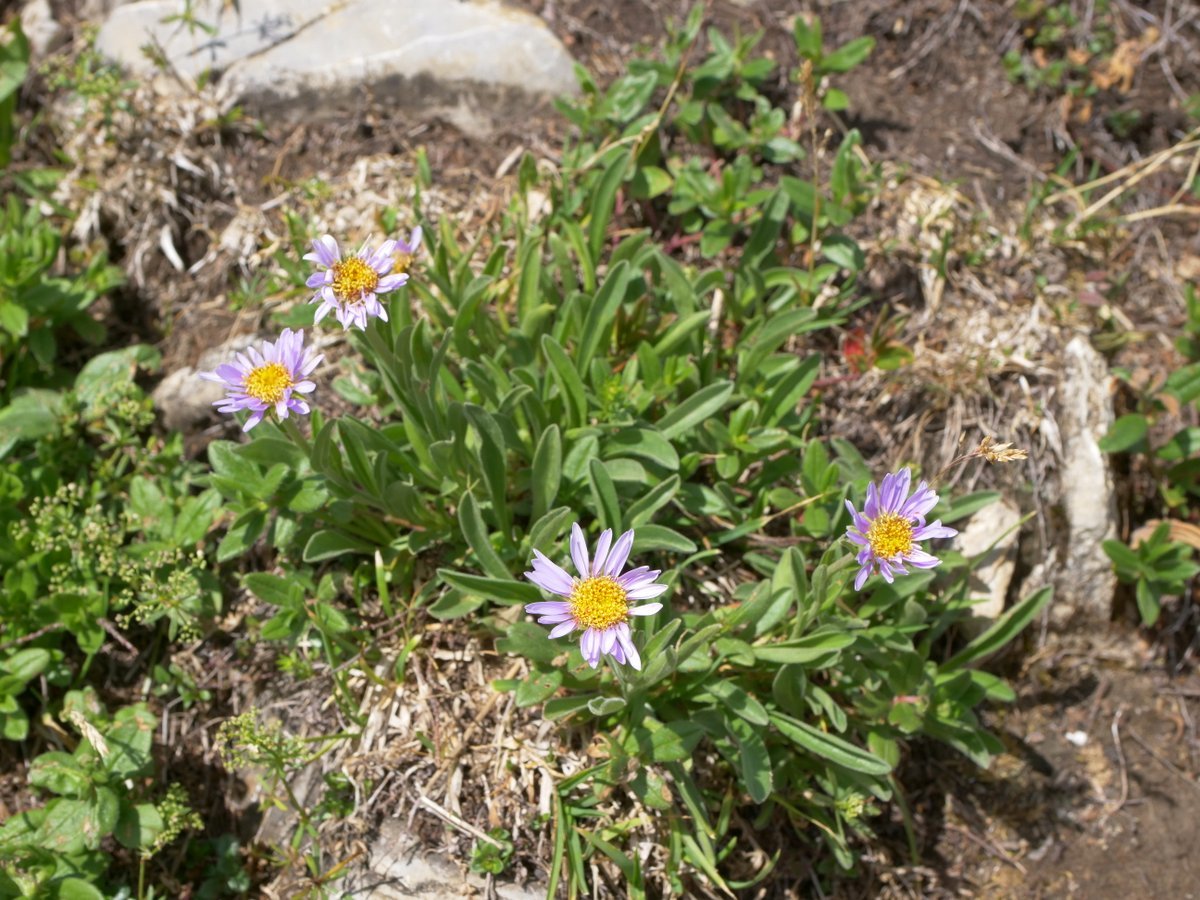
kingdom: Plantae
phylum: Tracheophyta
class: Magnoliopsida
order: Asterales
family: Asteraceae
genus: Aster
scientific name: Aster alpinus
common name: Alpine aster
